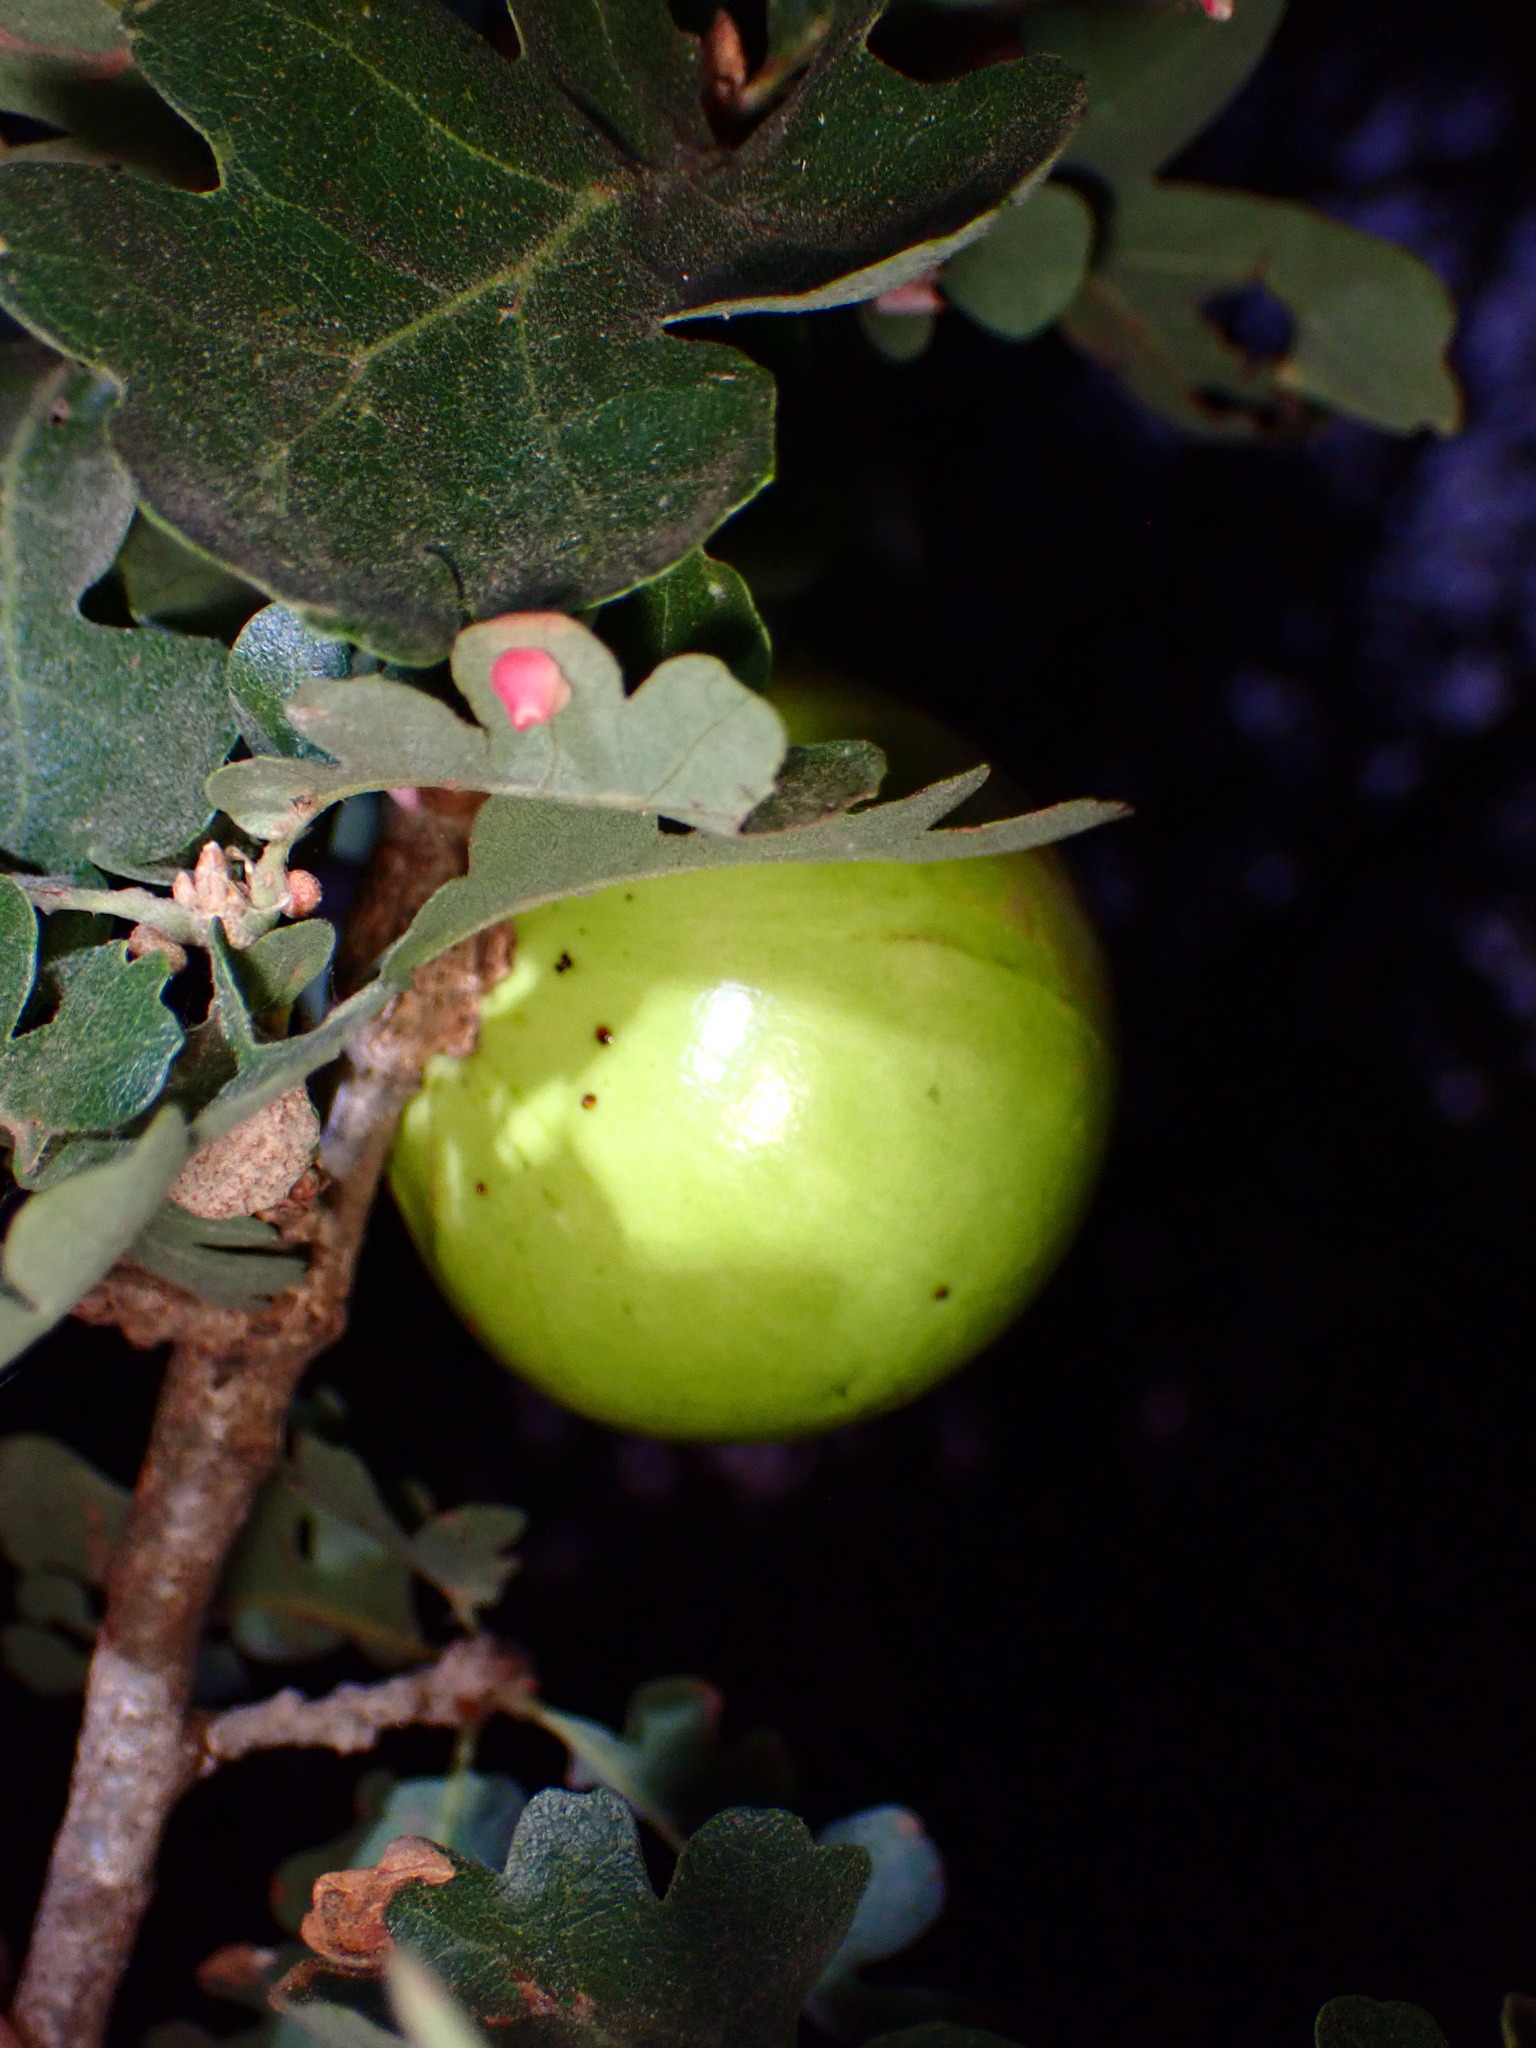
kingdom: Animalia
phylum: Arthropoda
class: Insecta
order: Hymenoptera
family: Cynipidae
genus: Andricus
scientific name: Andricus quercuscalifornicus
